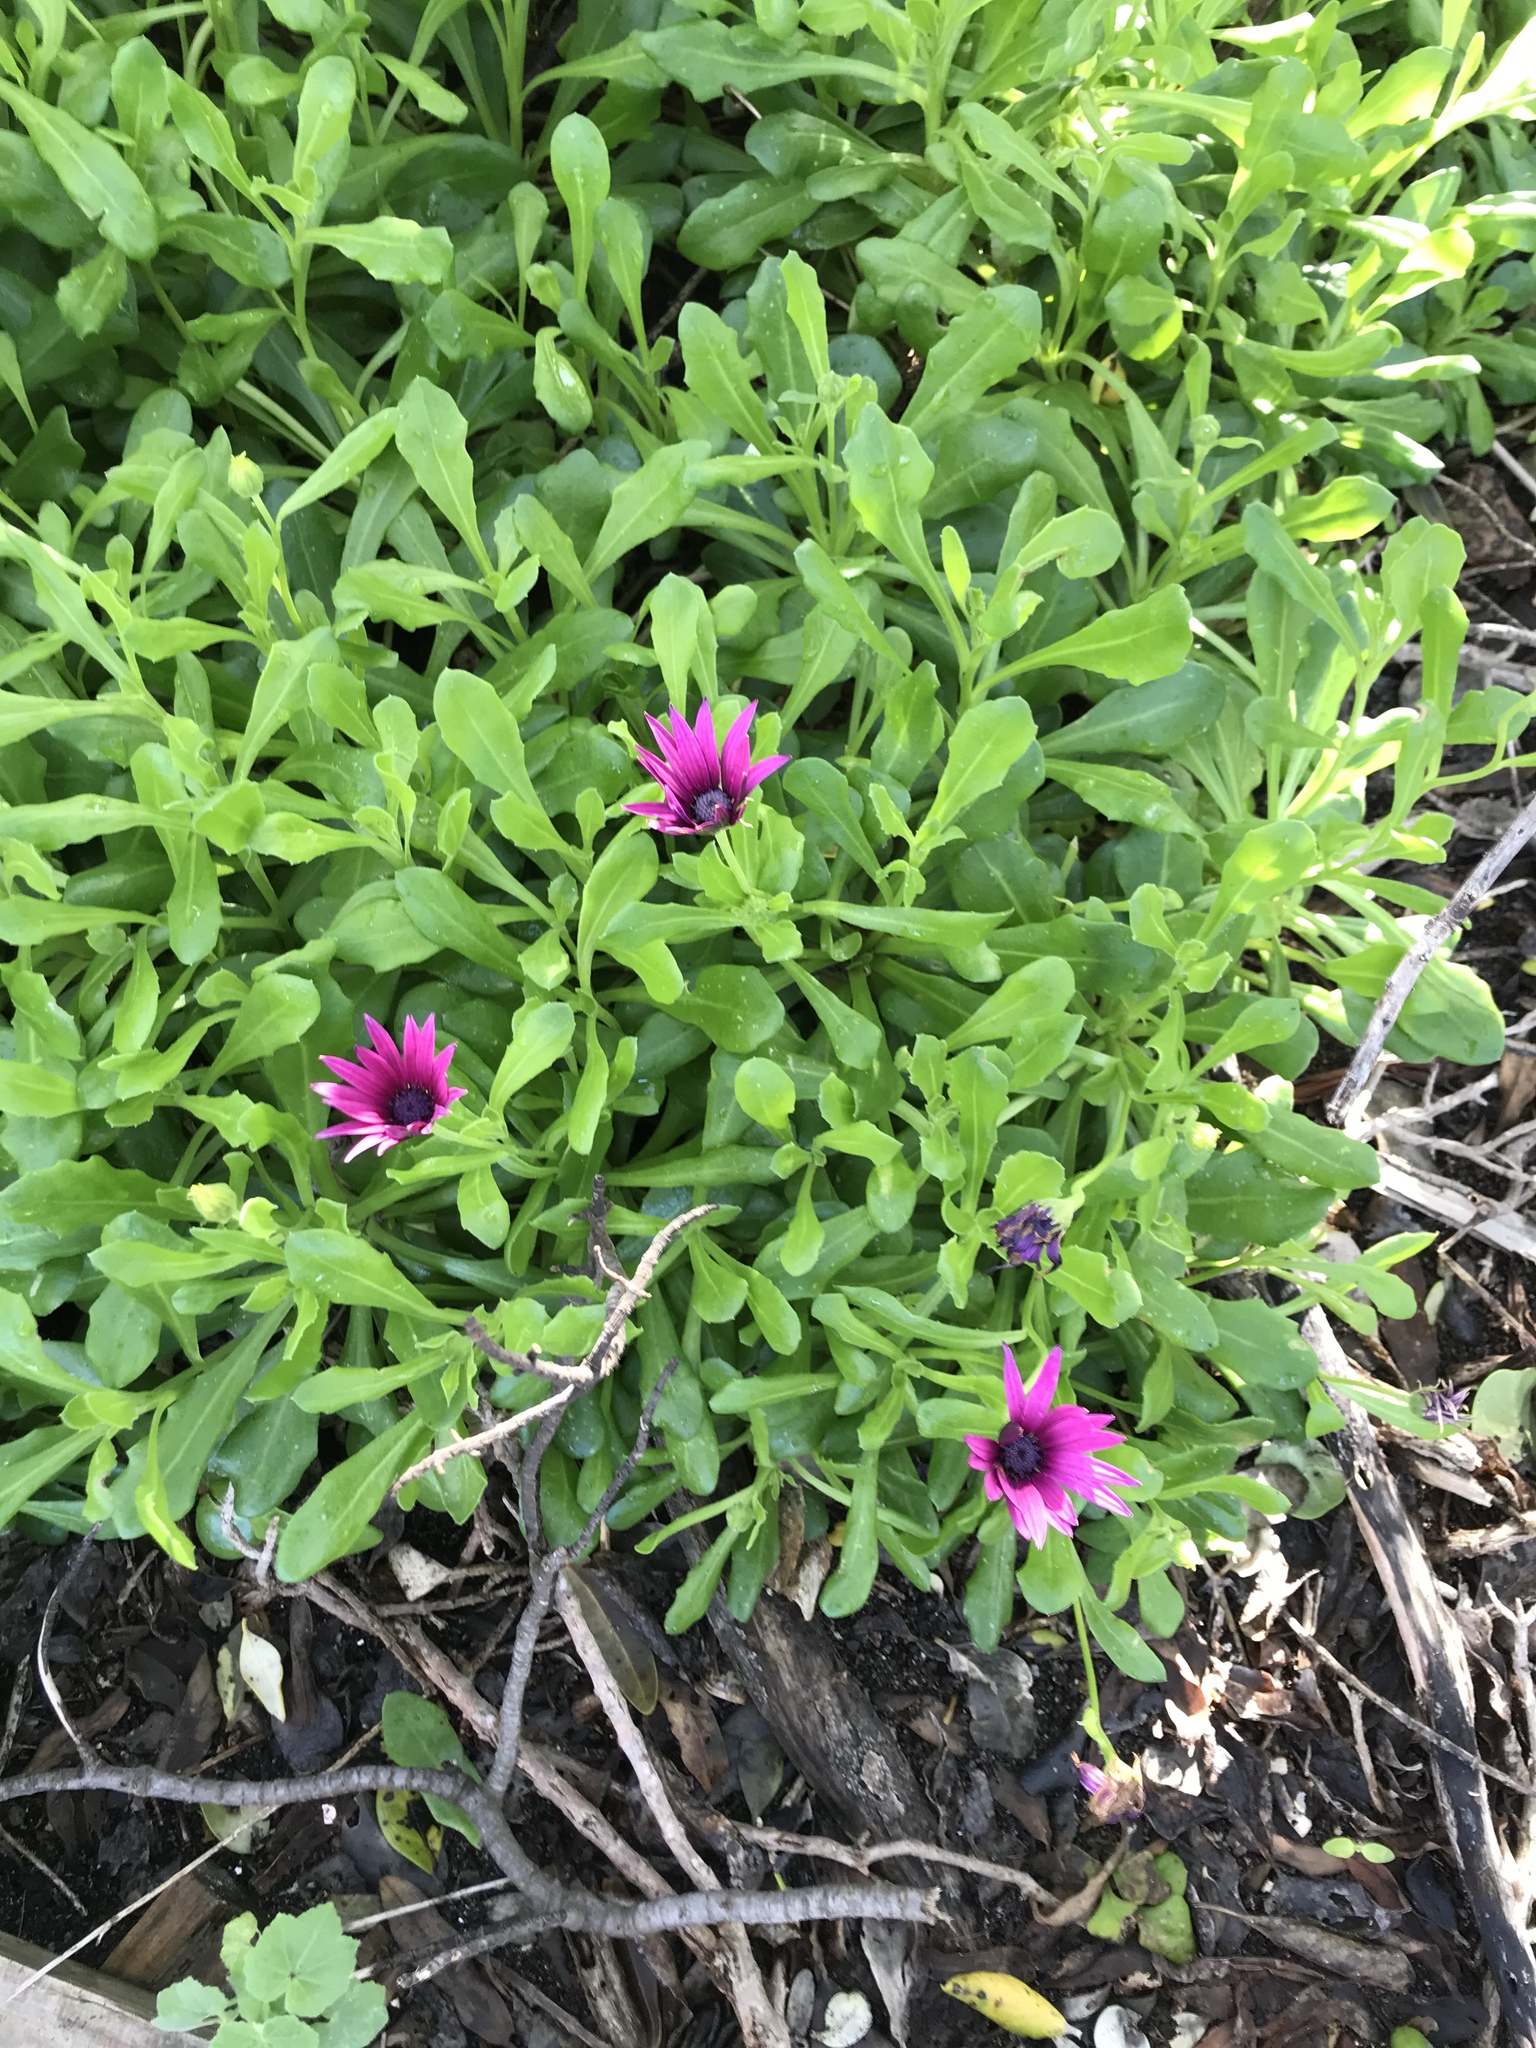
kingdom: Plantae
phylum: Tracheophyta
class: Magnoliopsida
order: Asterales
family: Asteraceae
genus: Dimorphotheca
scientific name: Dimorphotheca jucunda
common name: Osteospermum
